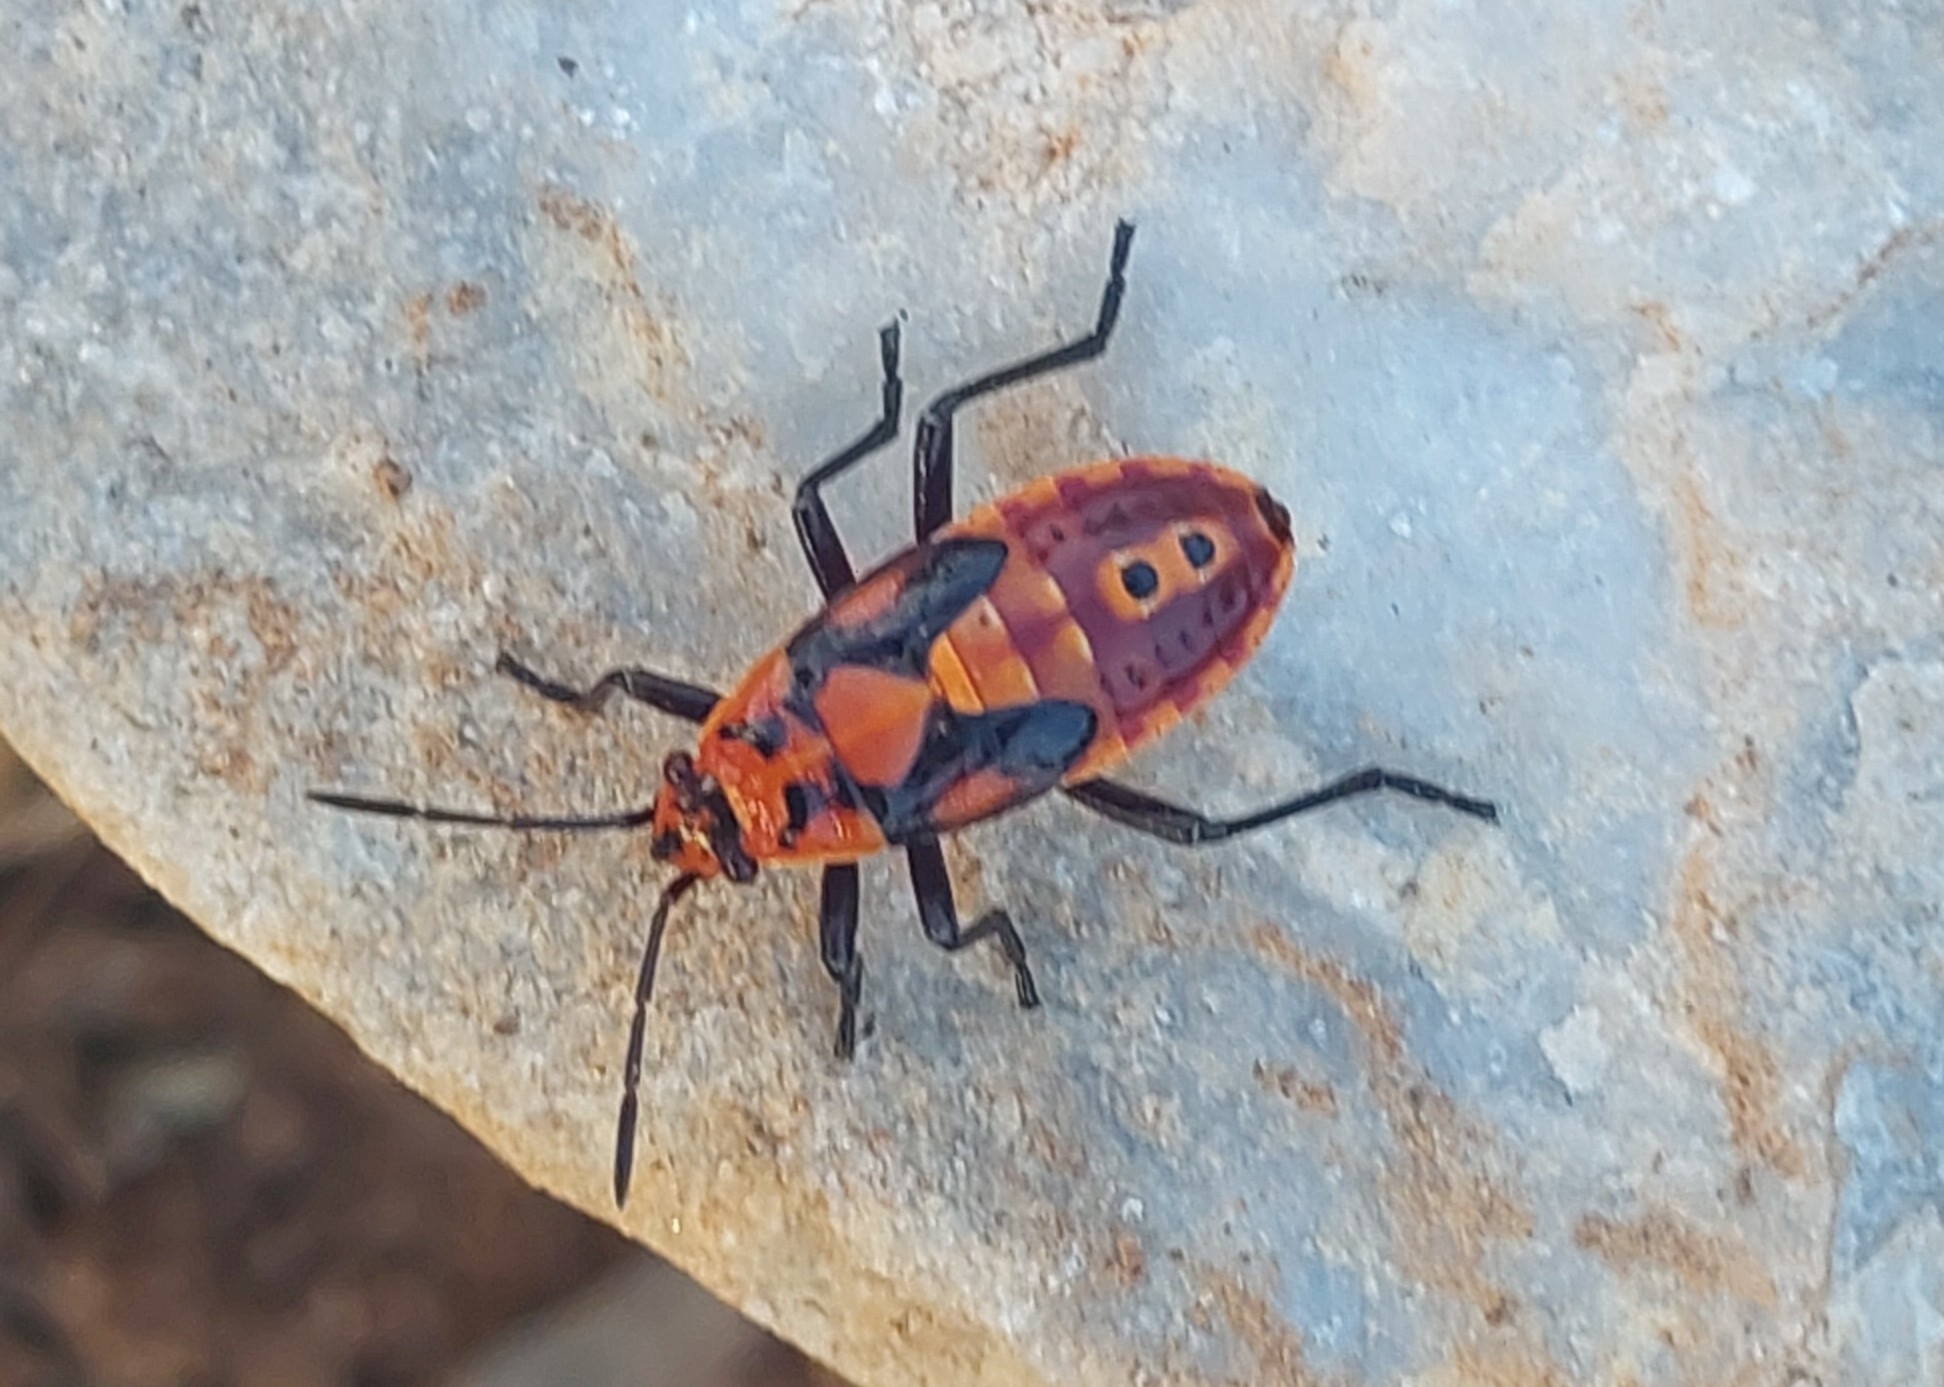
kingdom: Animalia
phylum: Arthropoda
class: Insecta
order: Hemiptera
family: Lygaeidae
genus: Spilostethus
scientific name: Spilostethus saxatilis
